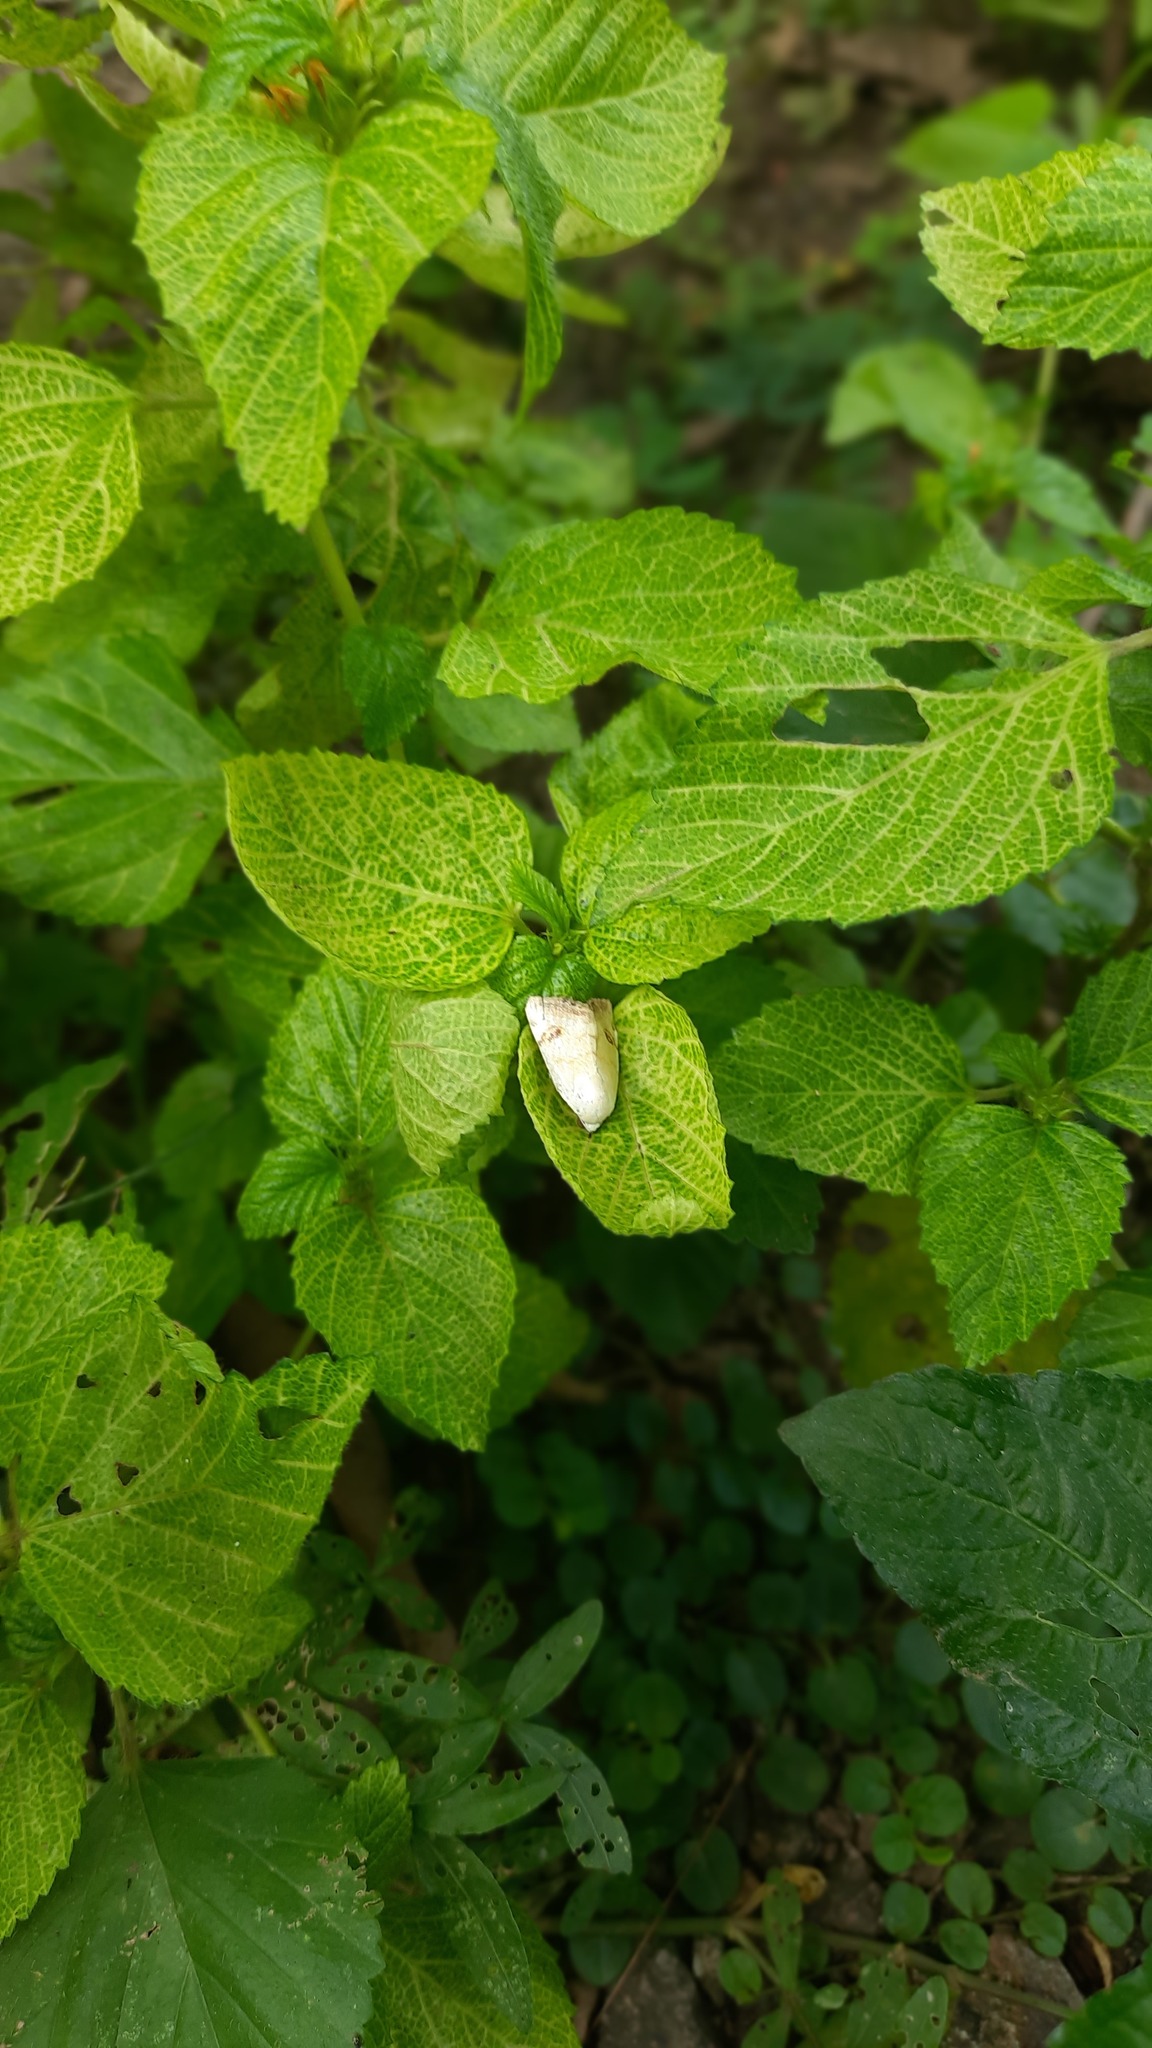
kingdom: Animalia
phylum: Arthropoda
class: Insecta
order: Lepidoptera
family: Nolidae
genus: Xanthodes
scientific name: Xanthodes albago
